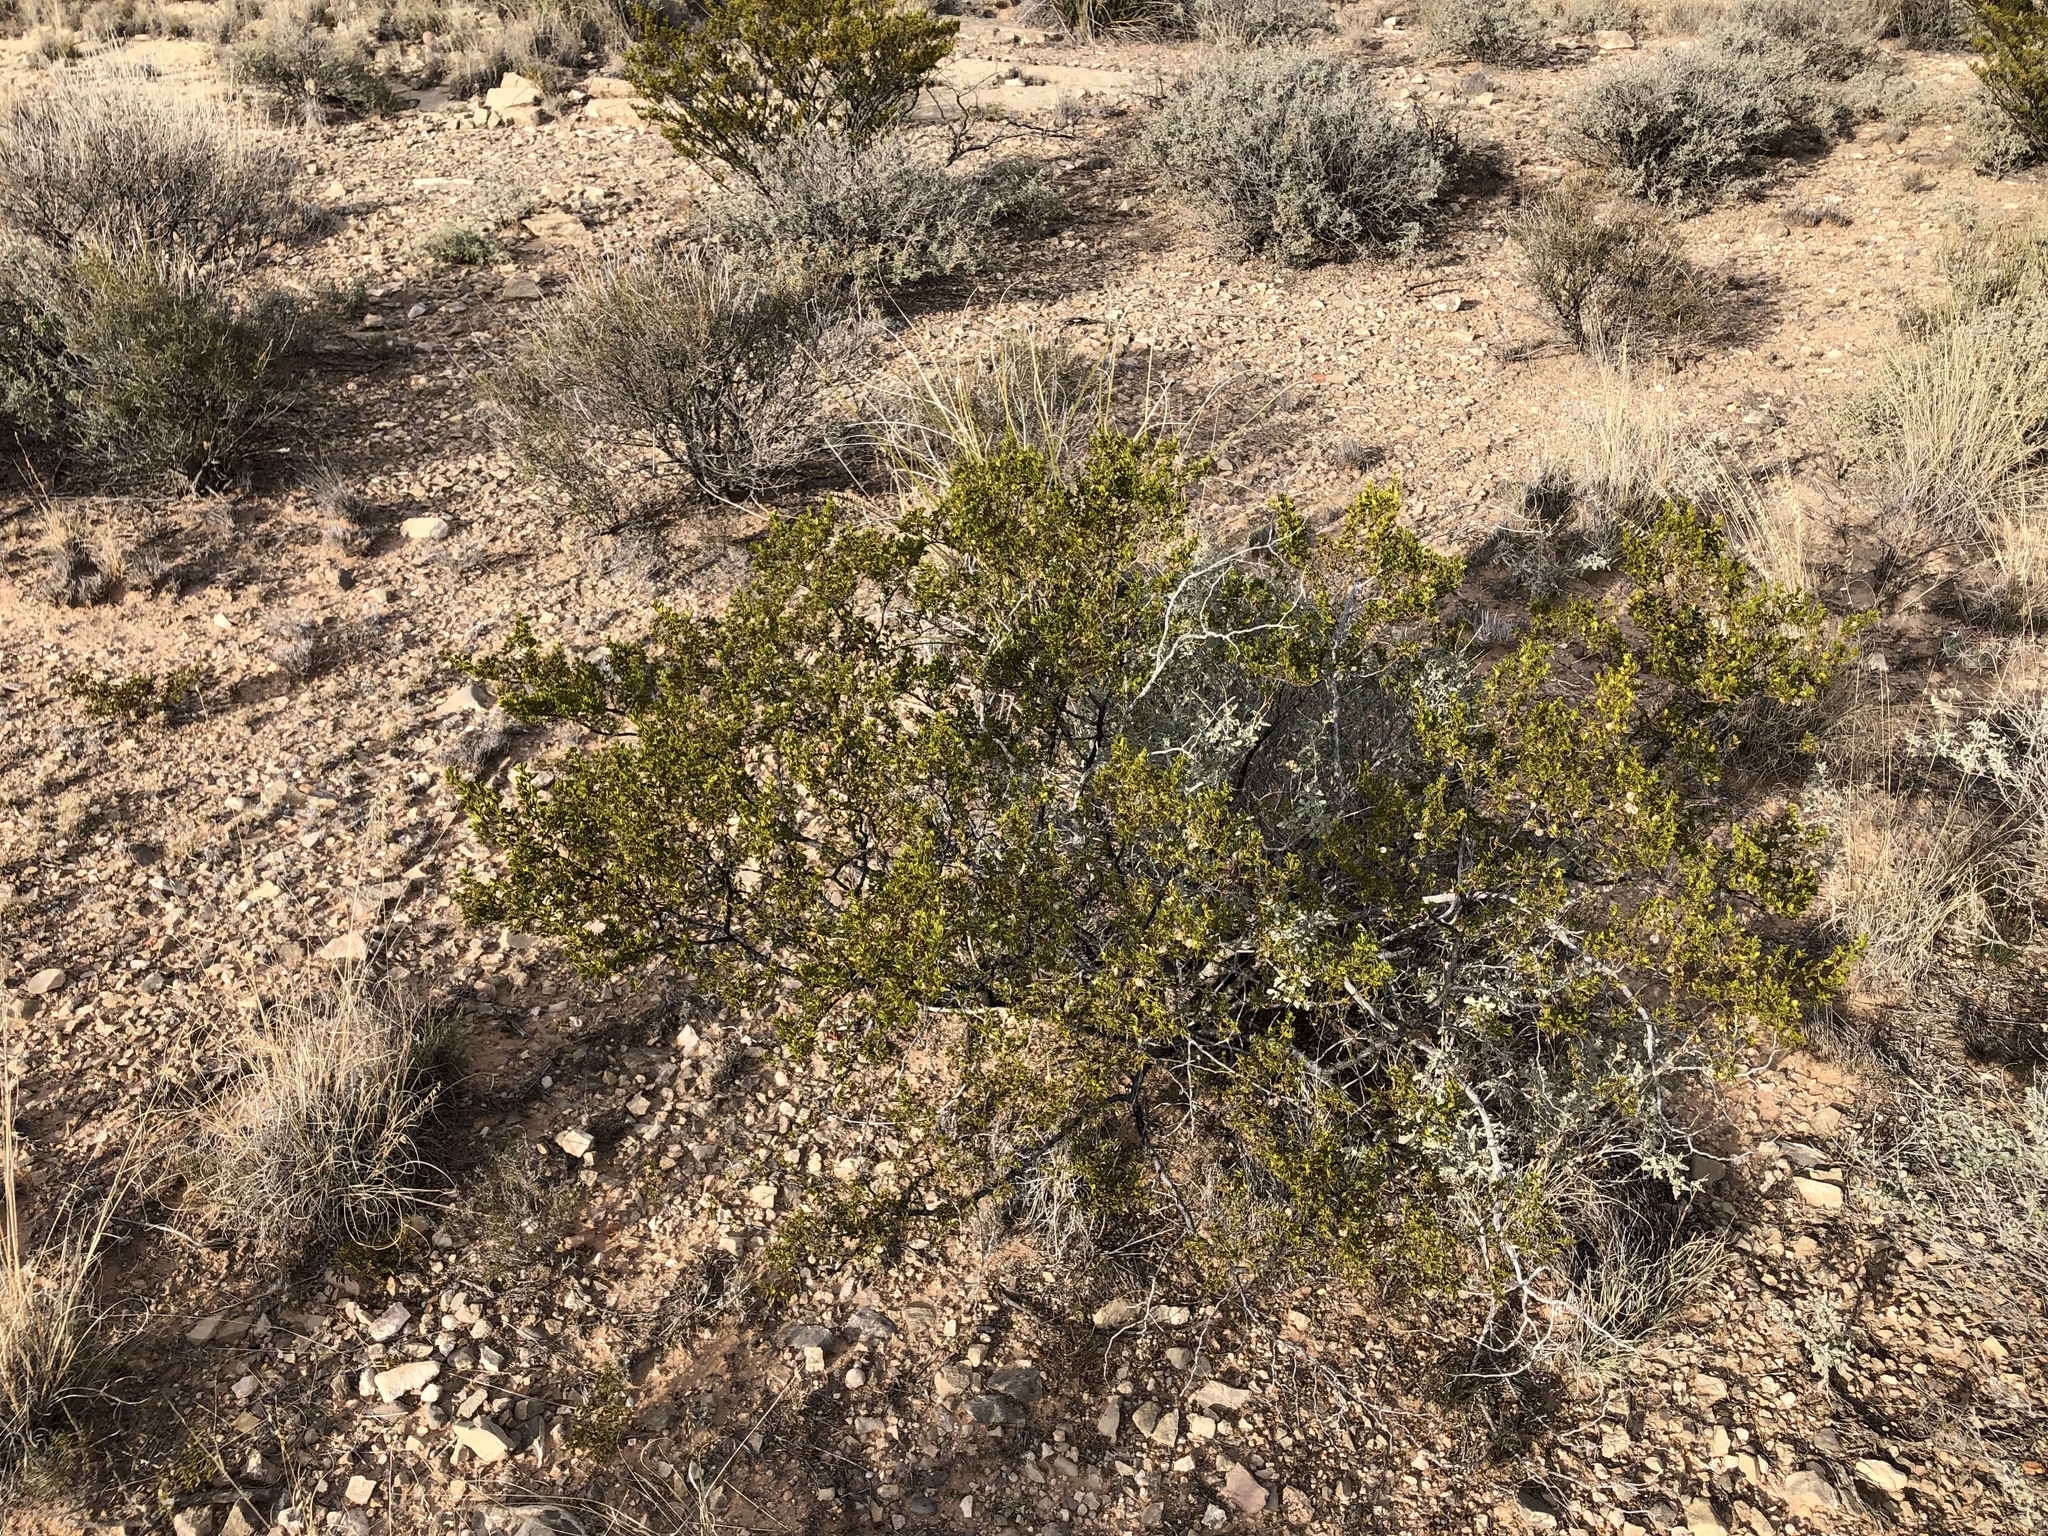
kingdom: Plantae
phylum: Tracheophyta
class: Magnoliopsida
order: Zygophyllales
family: Zygophyllaceae
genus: Larrea
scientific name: Larrea tridentata
